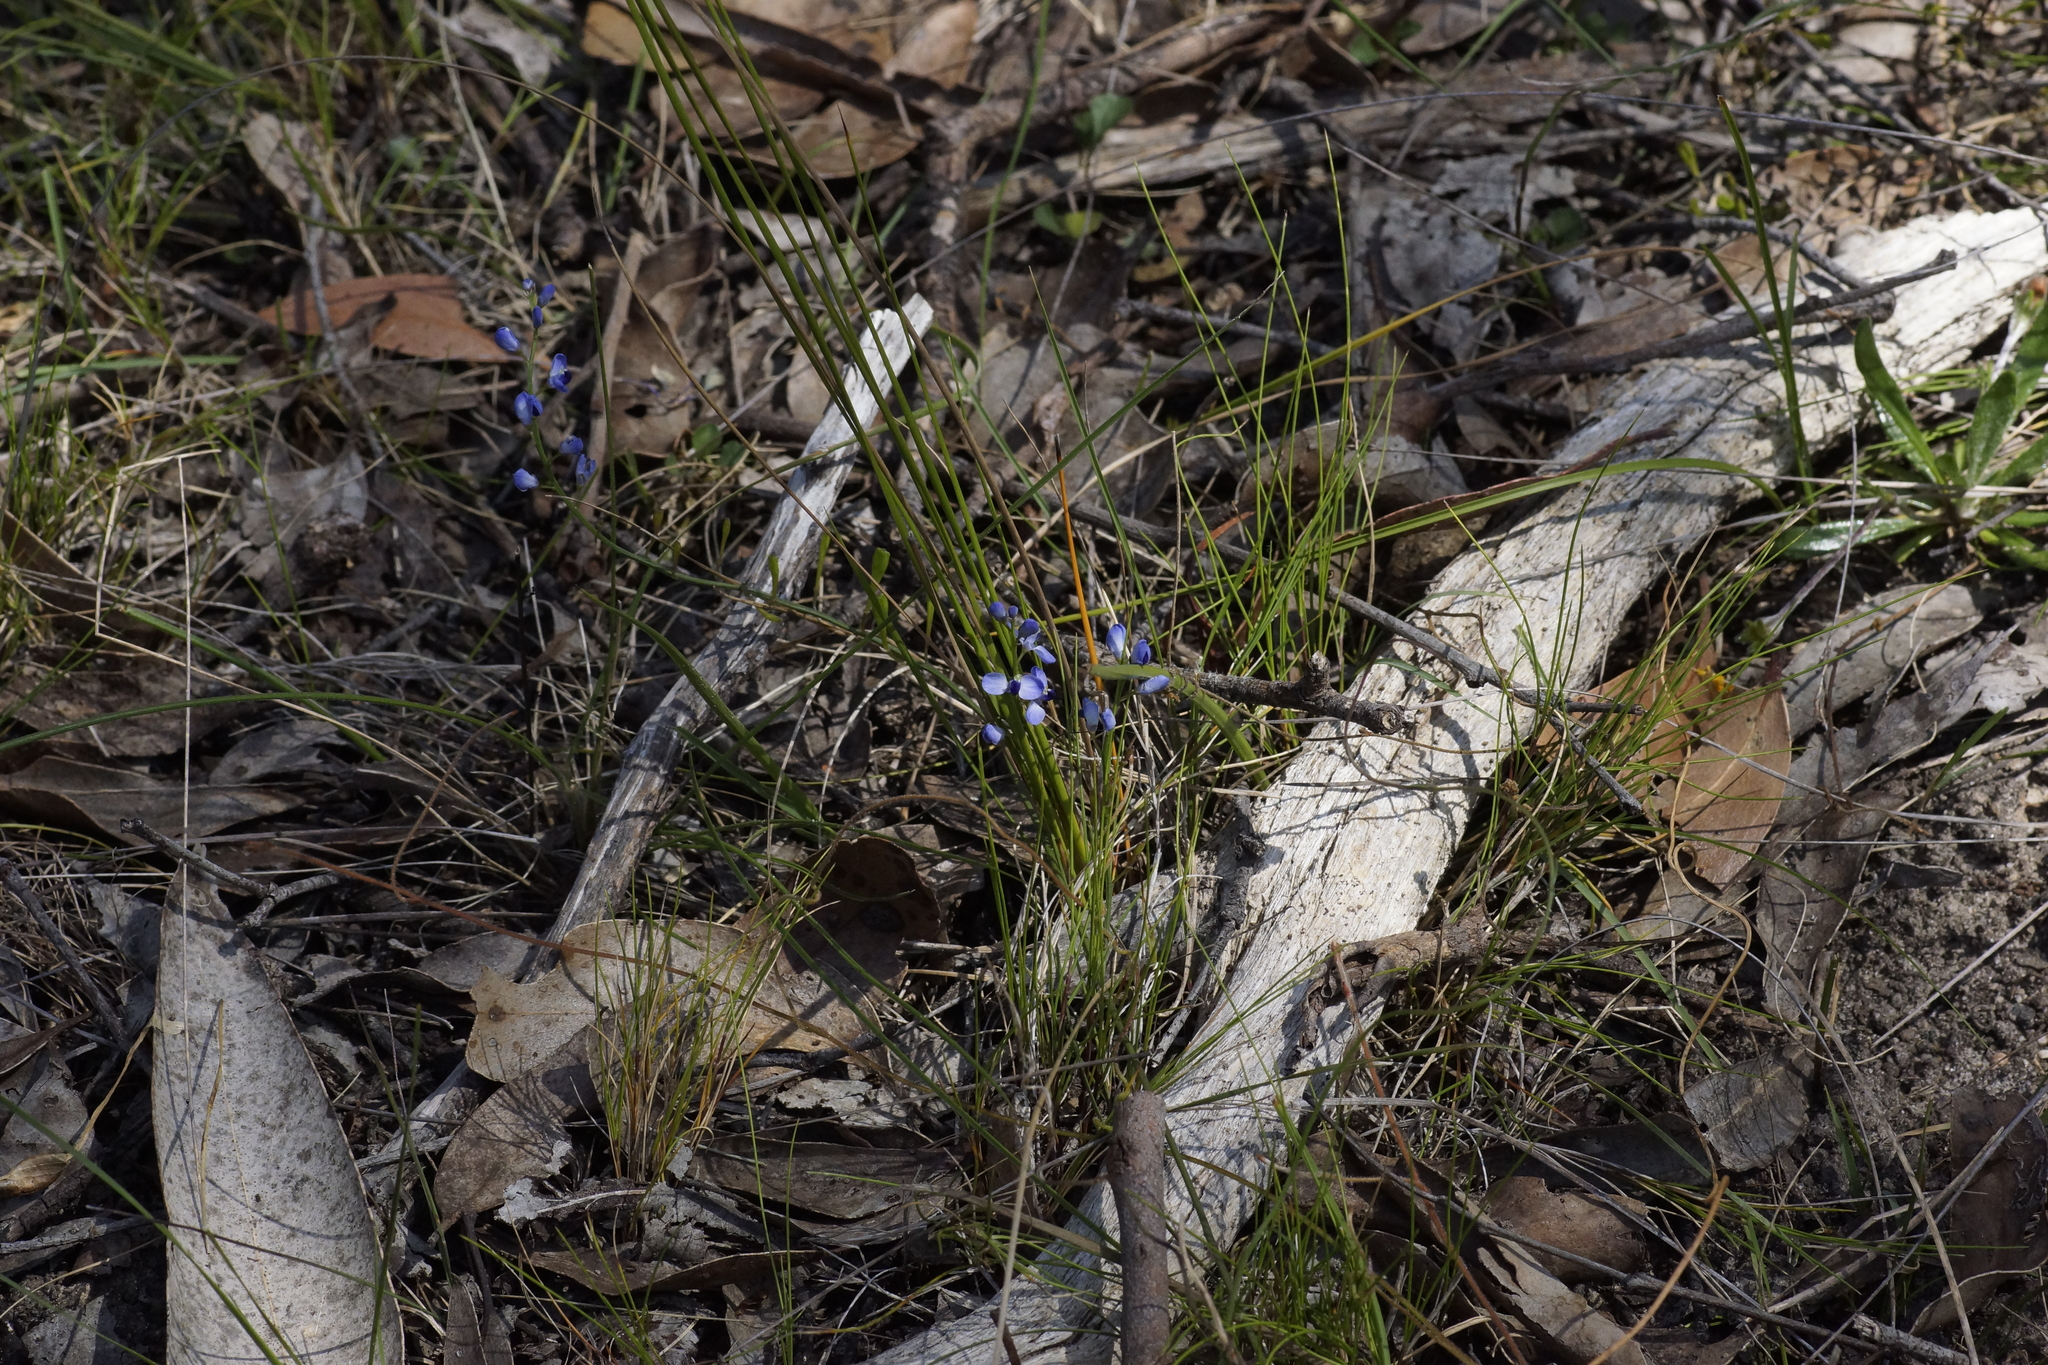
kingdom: Plantae
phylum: Tracheophyta
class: Magnoliopsida
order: Fabales
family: Polygalaceae
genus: Comesperma
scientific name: Comesperma volubile
